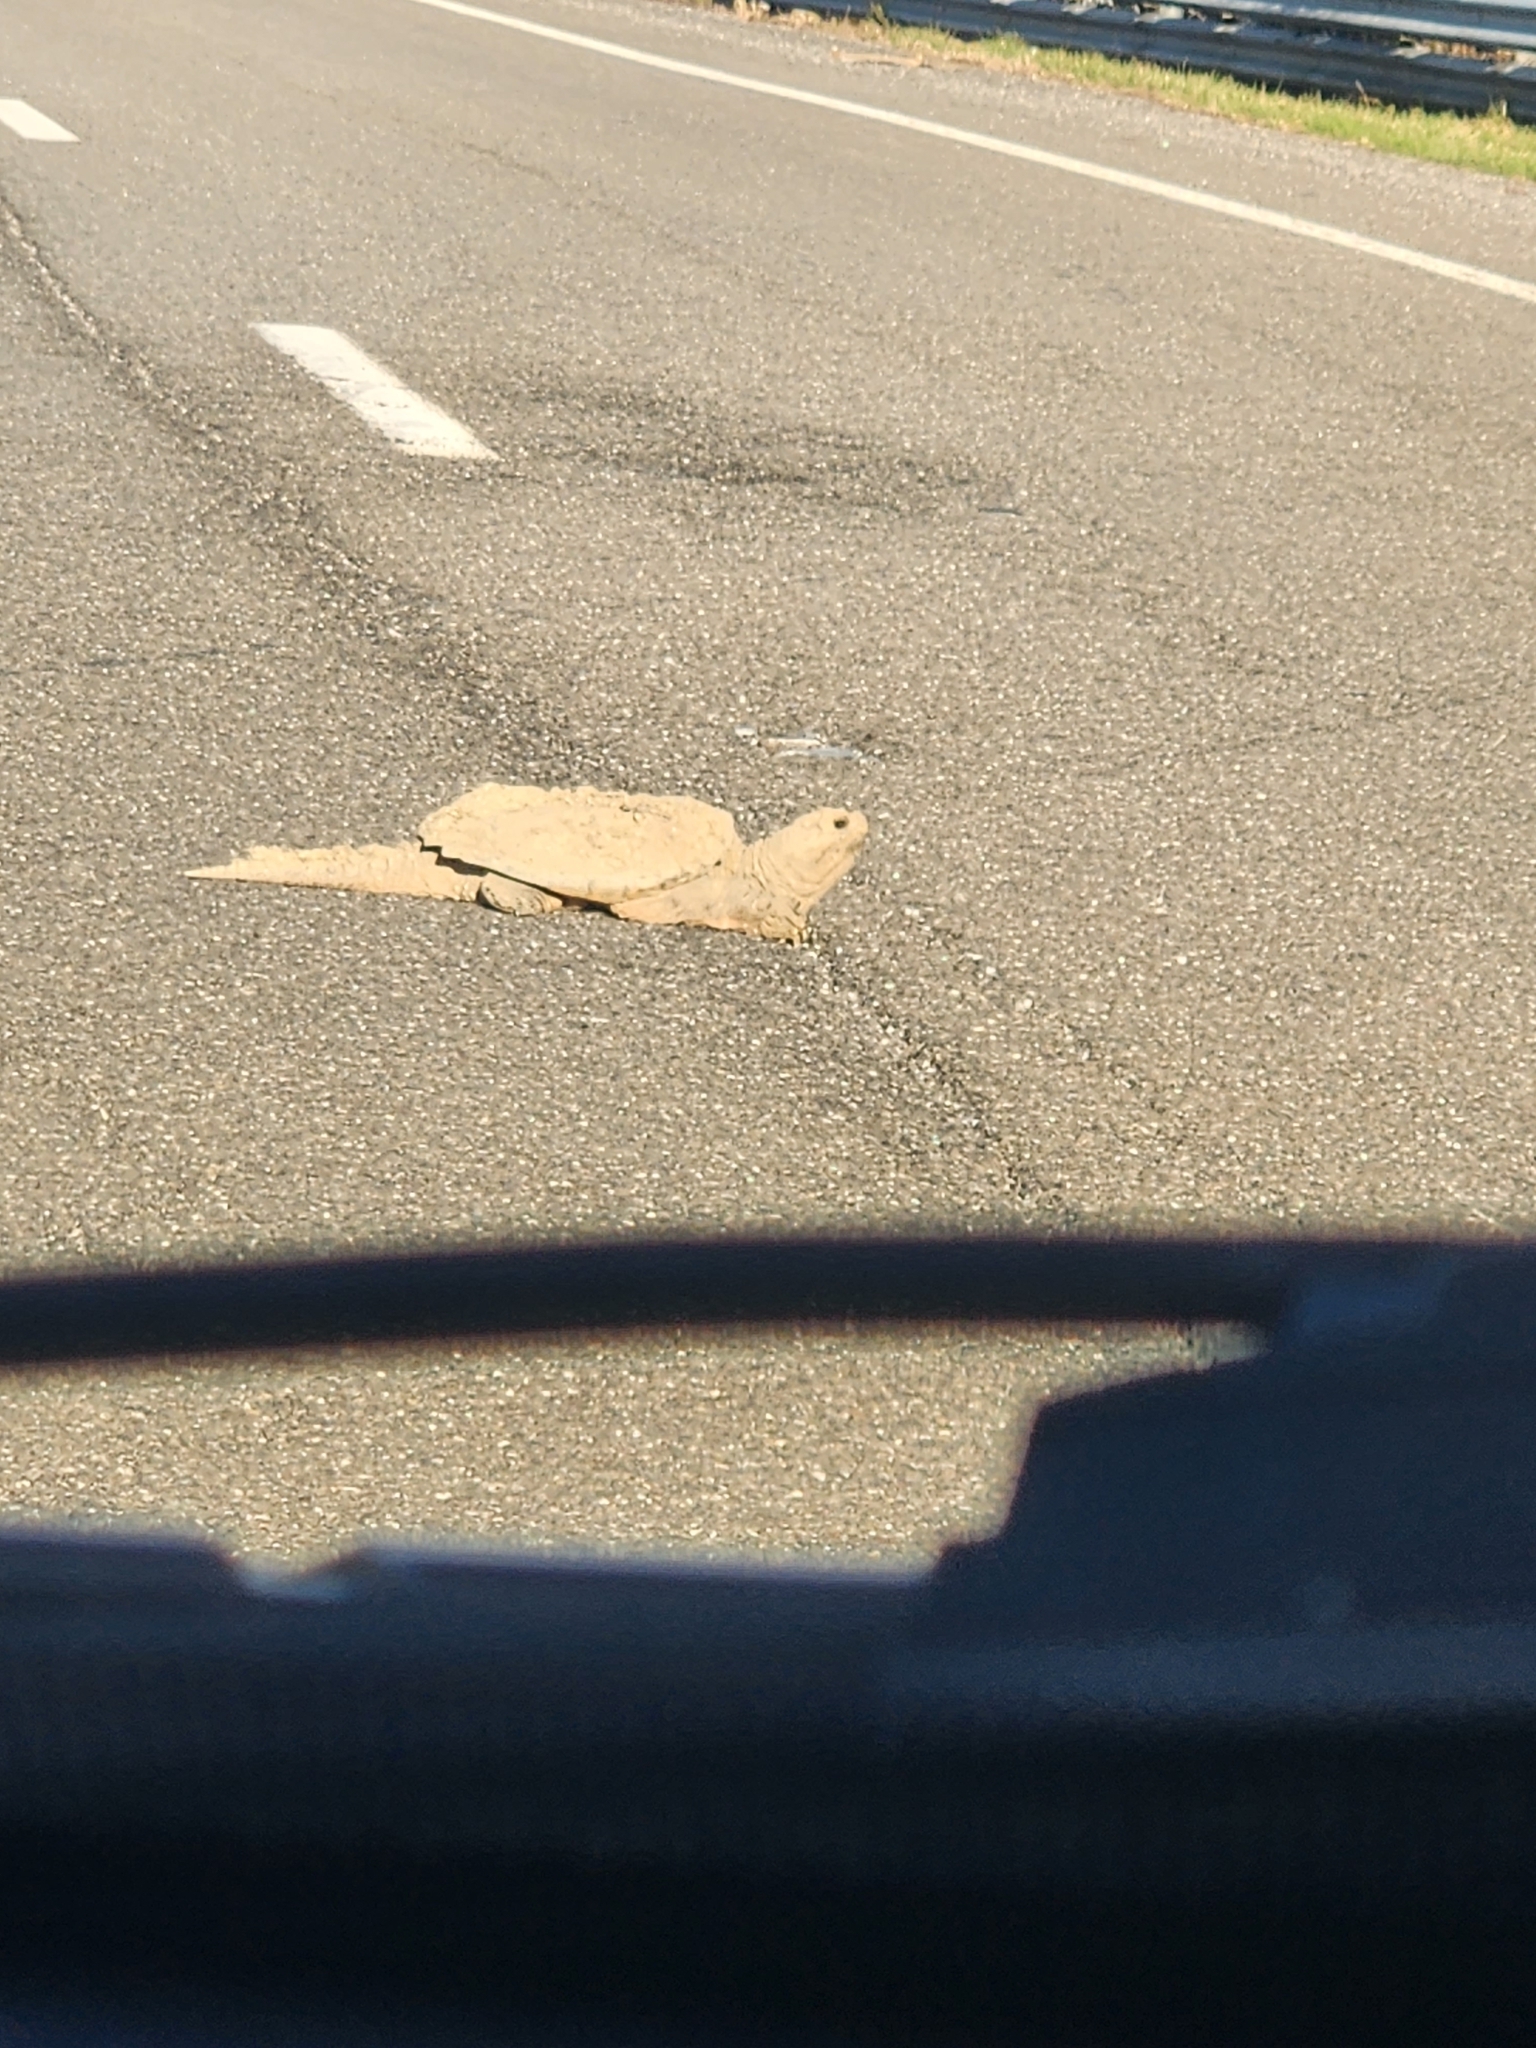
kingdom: Animalia
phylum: Chordata
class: Testudines
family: Chelydridae
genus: Chelydra
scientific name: Chelydra serpentina
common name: Common snapping turtle
